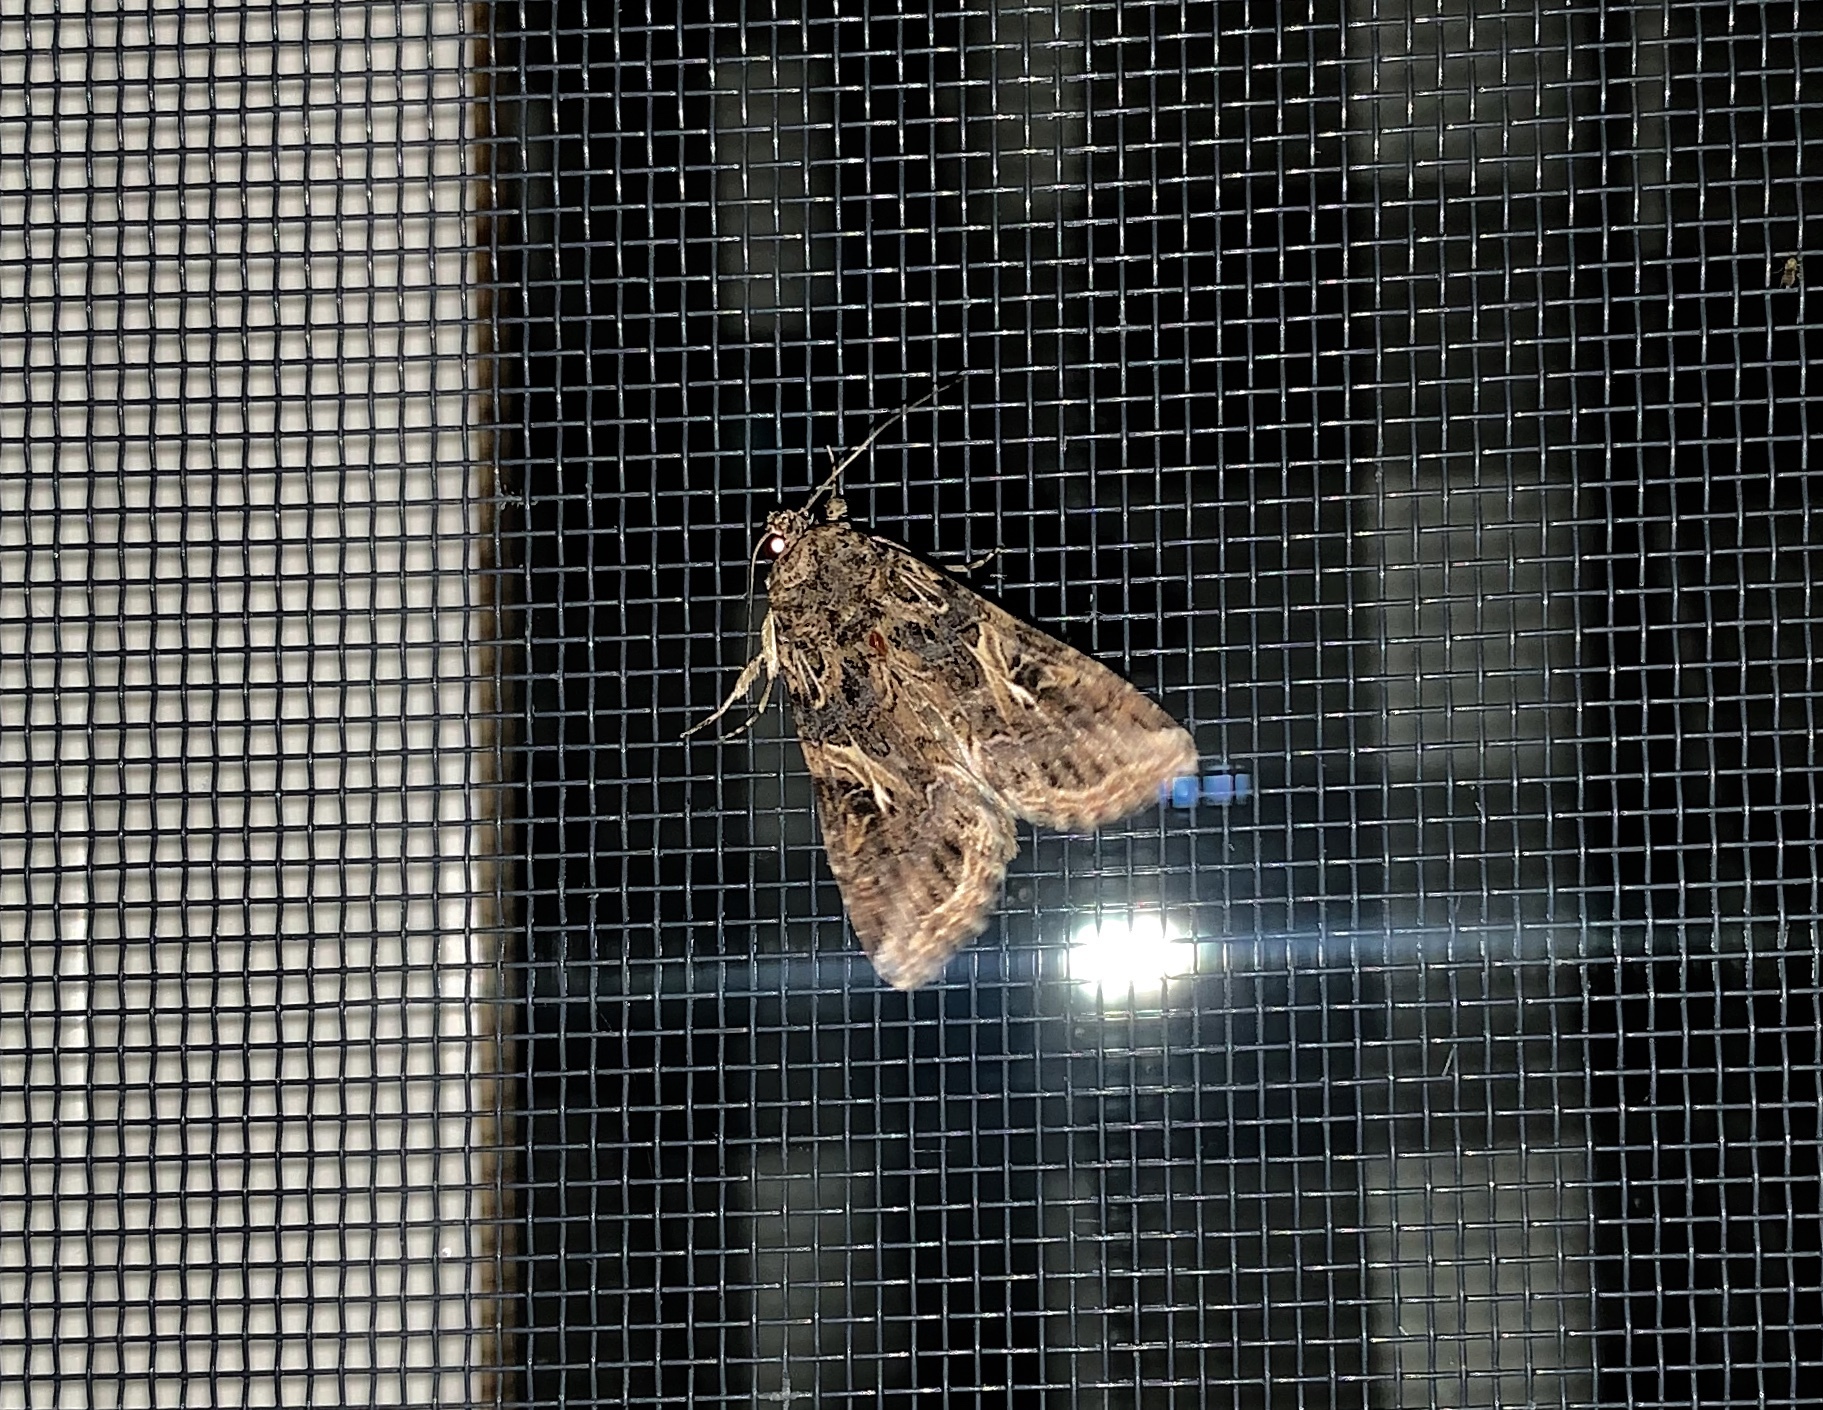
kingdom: Animalia
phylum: Arthropoda
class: Insecta
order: Lepidoptera
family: Noctuidae
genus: Spodoptera
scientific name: Spodoptera ornithogalli
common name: Yellow-striped armyworm
